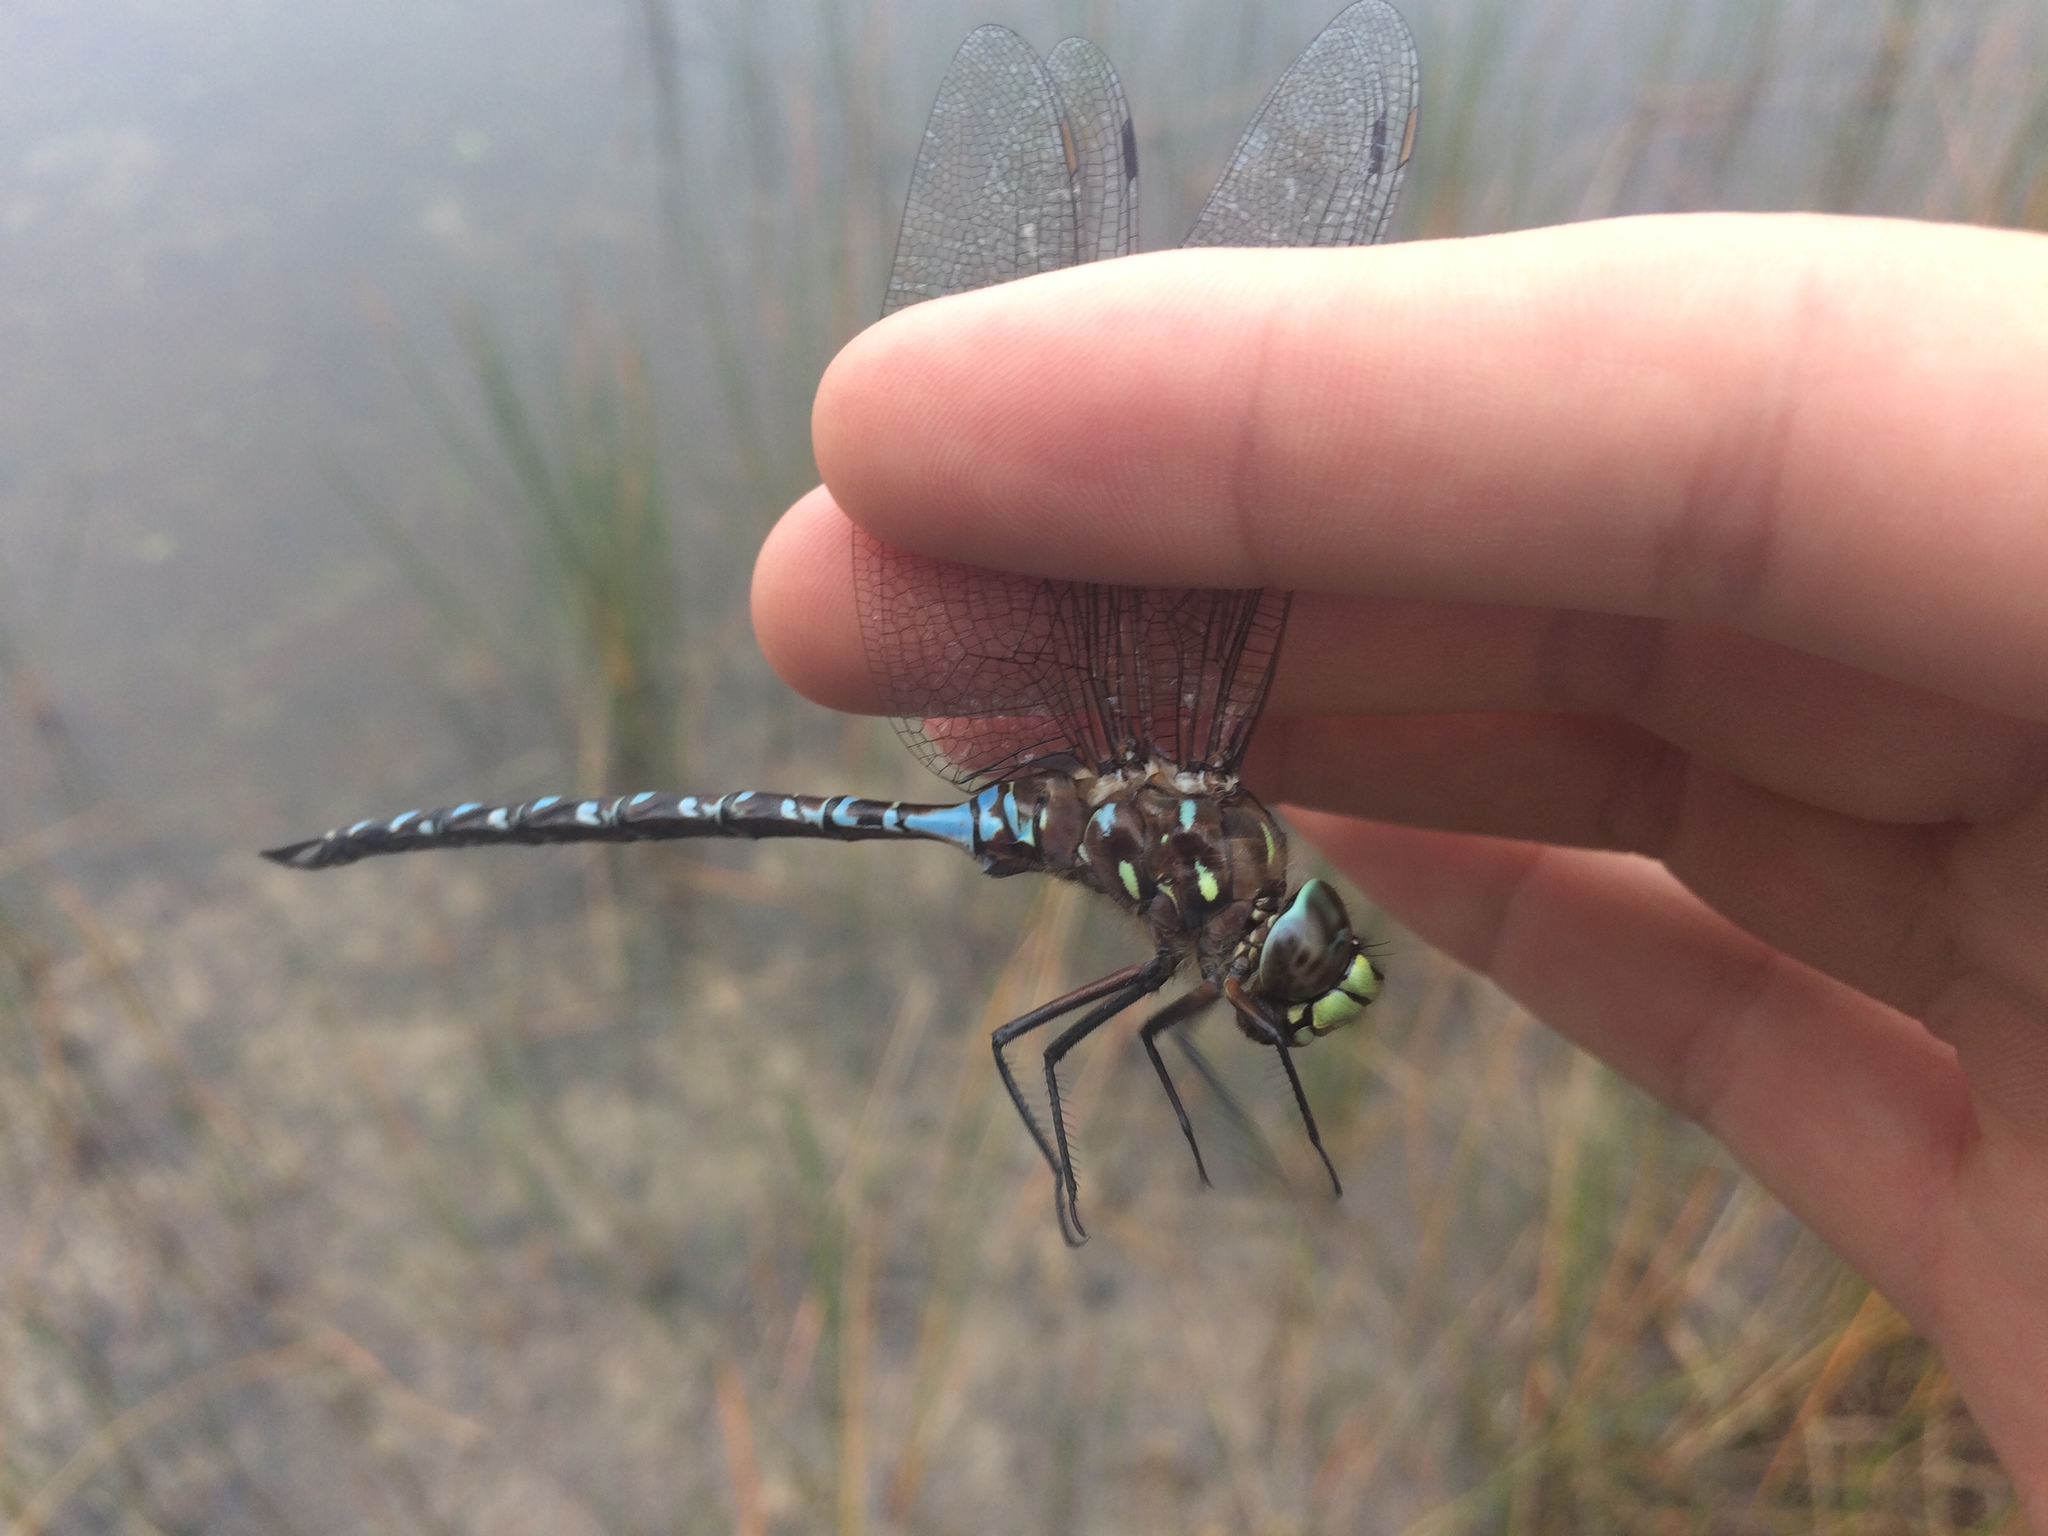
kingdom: Animalia
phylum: Arthropoda
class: Insecta
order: Odonata
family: Aeshnidae
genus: Aeshna
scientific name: Aeshna interrupta
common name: Variable darner
